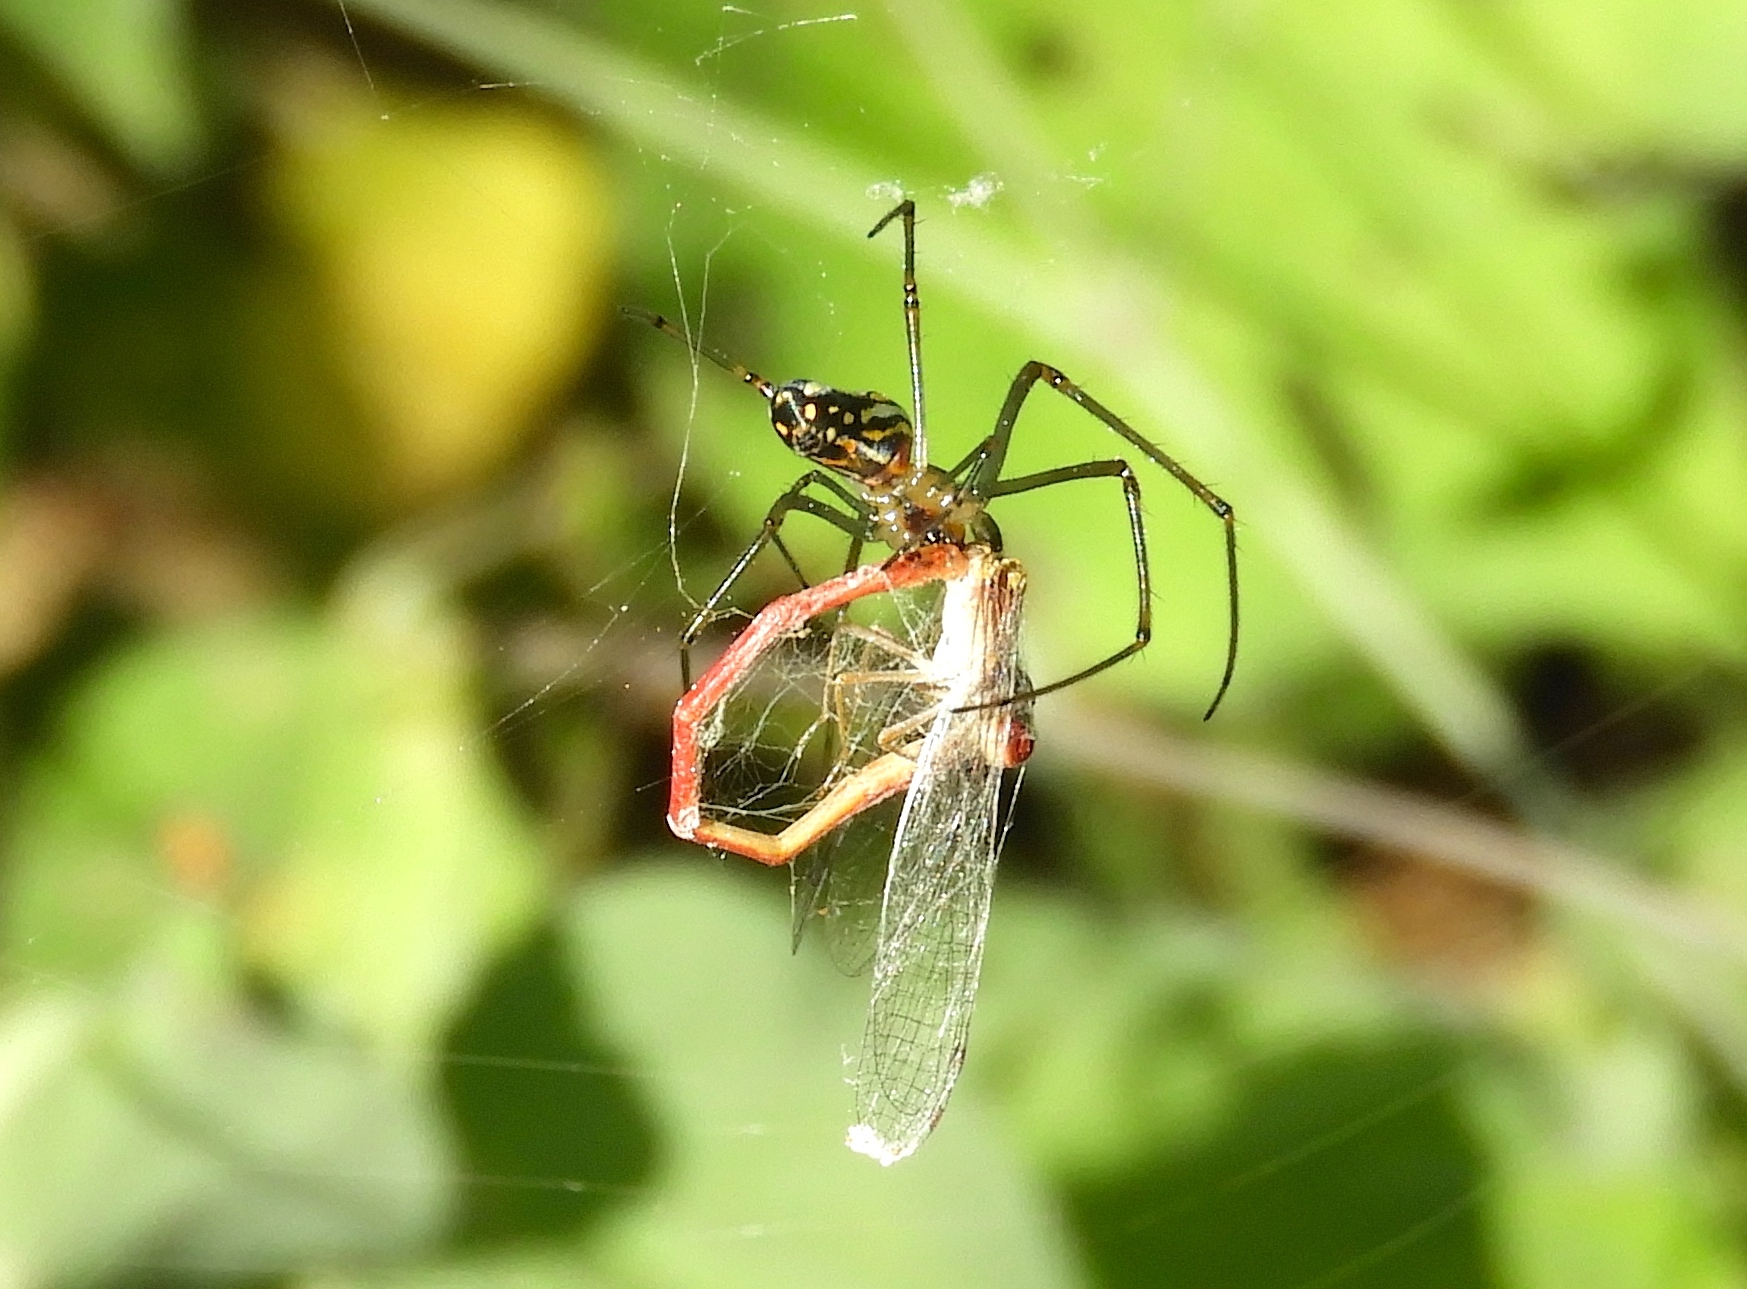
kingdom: Animalia
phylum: Arthropoda
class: Arachnida
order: Araneae
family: Tetragnathidae
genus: Leucauge
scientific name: Leucauge
